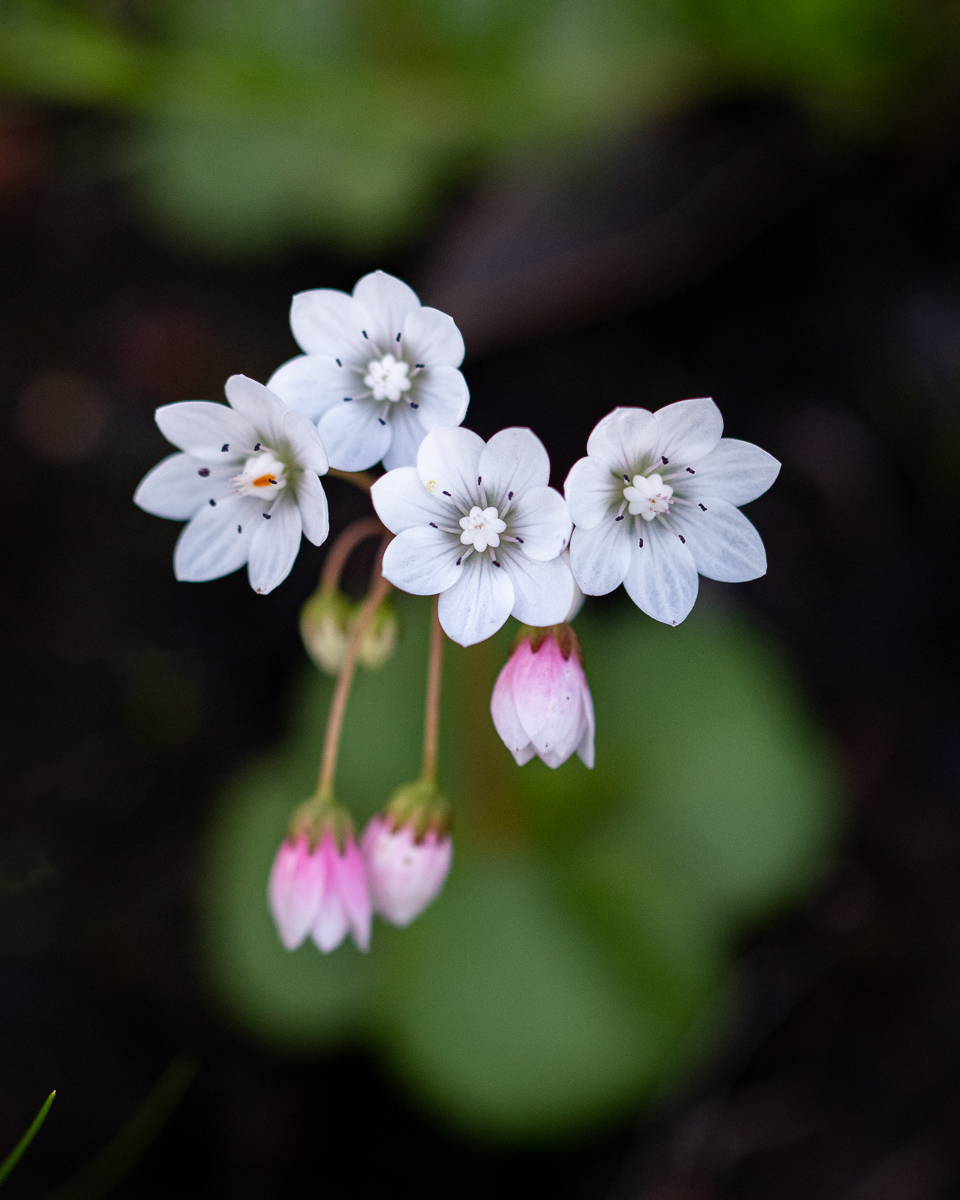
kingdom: Plantae
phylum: Tracheophyta
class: Magnoliopsida
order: Saxifragales
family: Crassulaceae
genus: Crassula
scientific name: Crassula capensis
